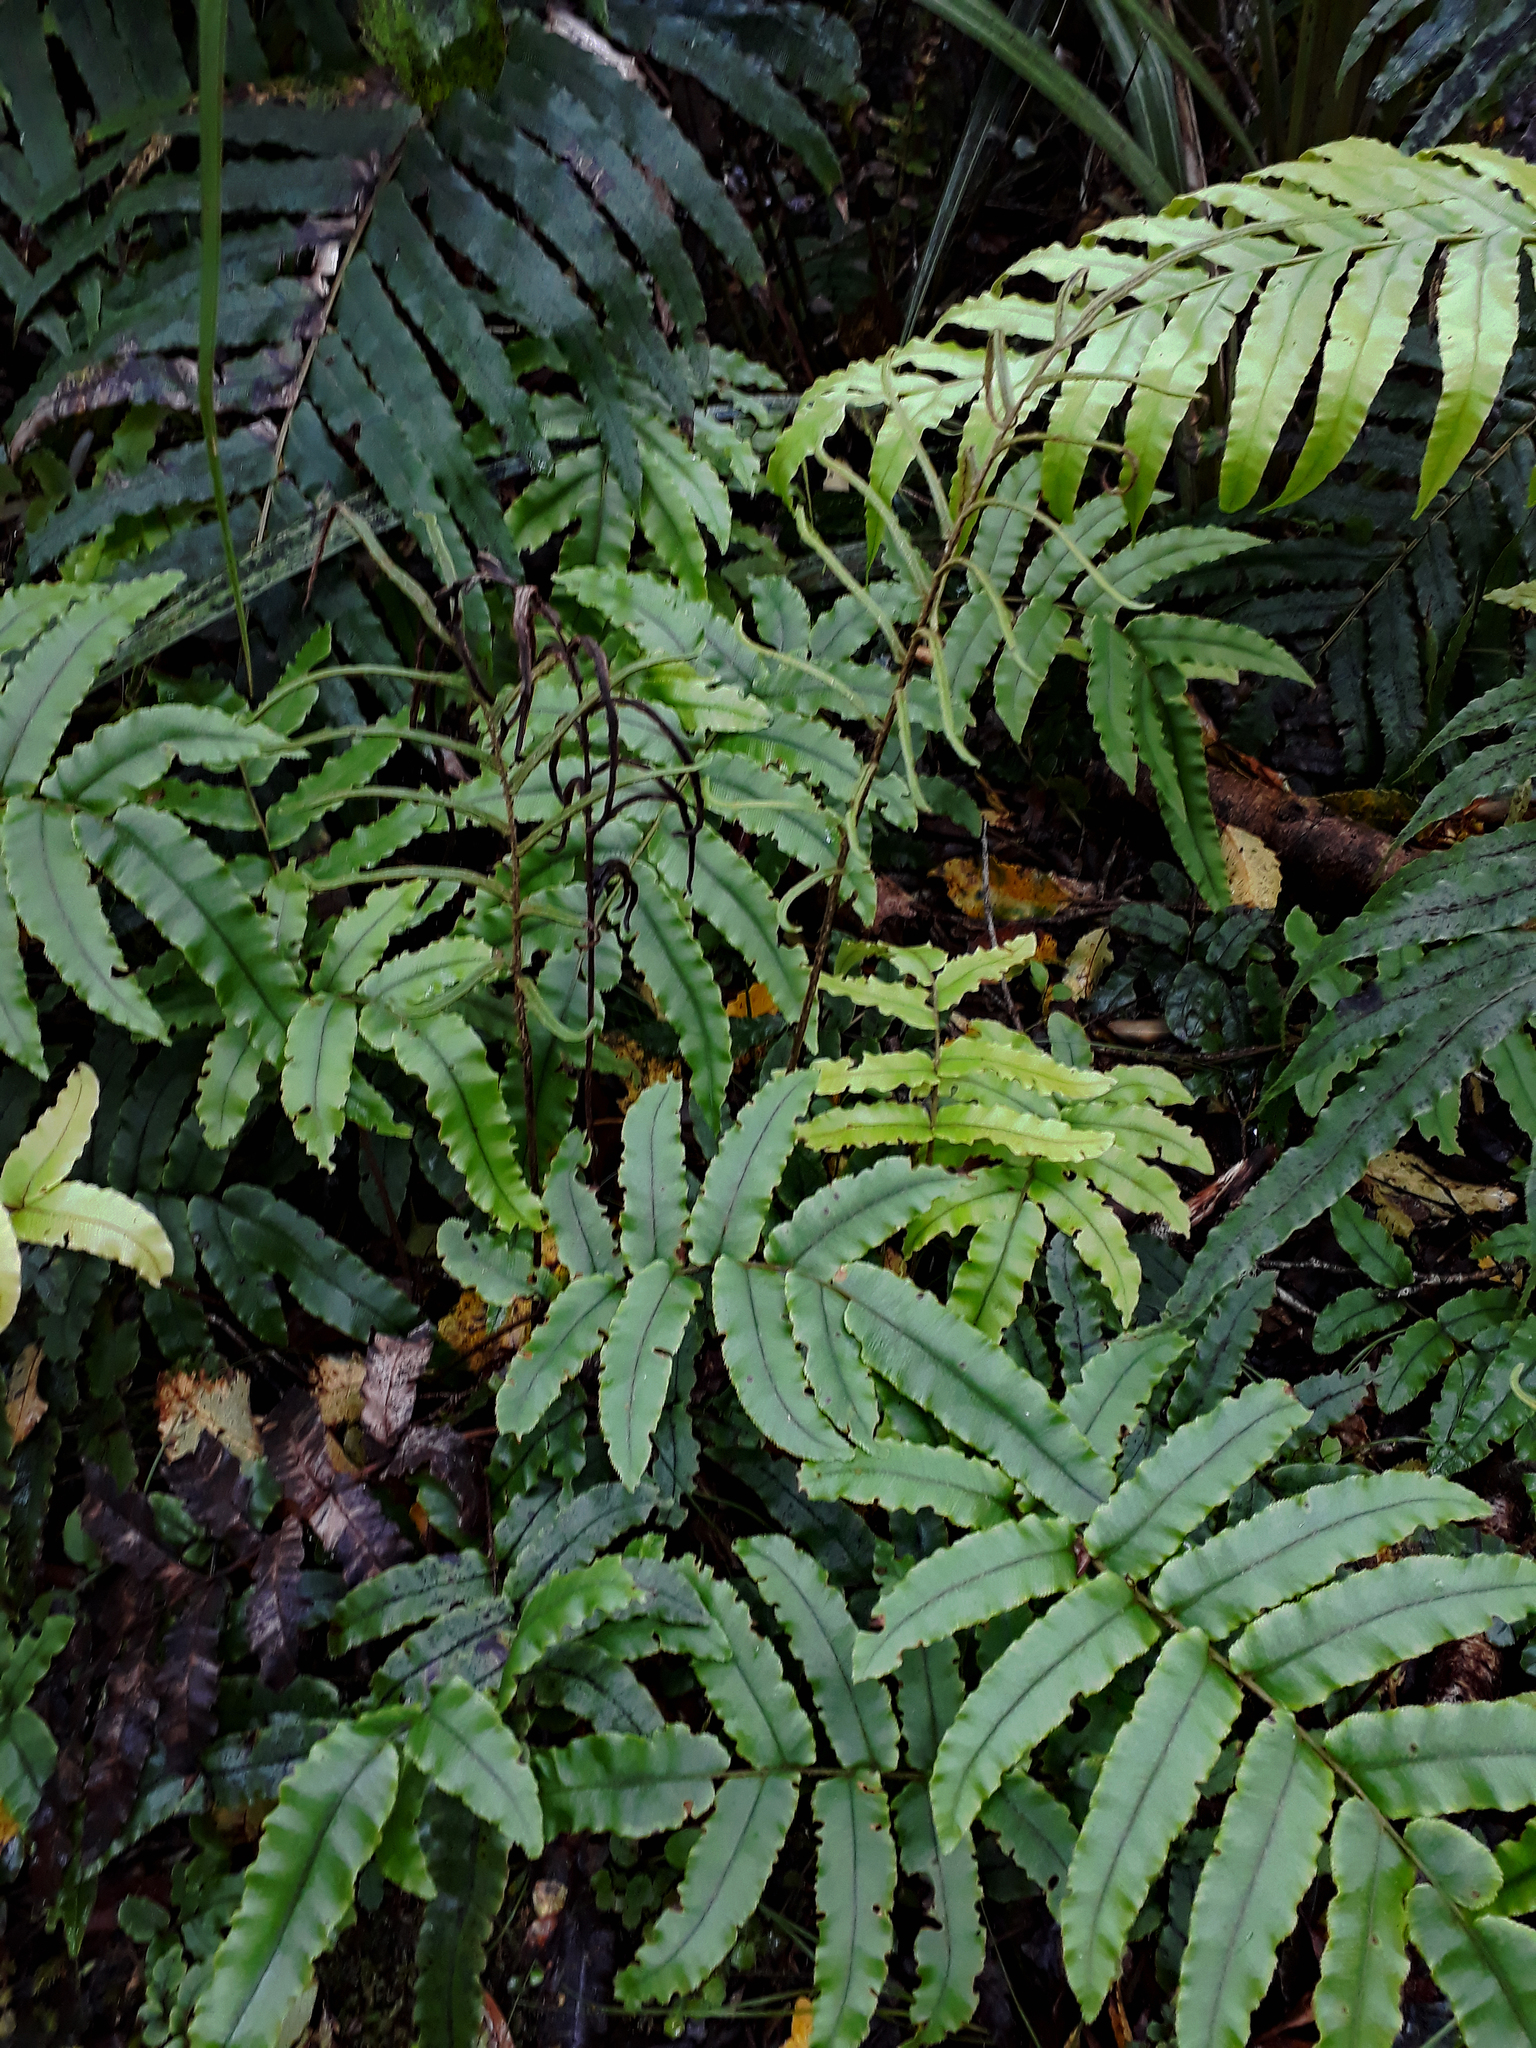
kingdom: Plantae
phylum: Tracheophyta
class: Polypodiopsida
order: Polypodiales
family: Blechnaceae
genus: Parablechnum
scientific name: Parablechnum procerum
